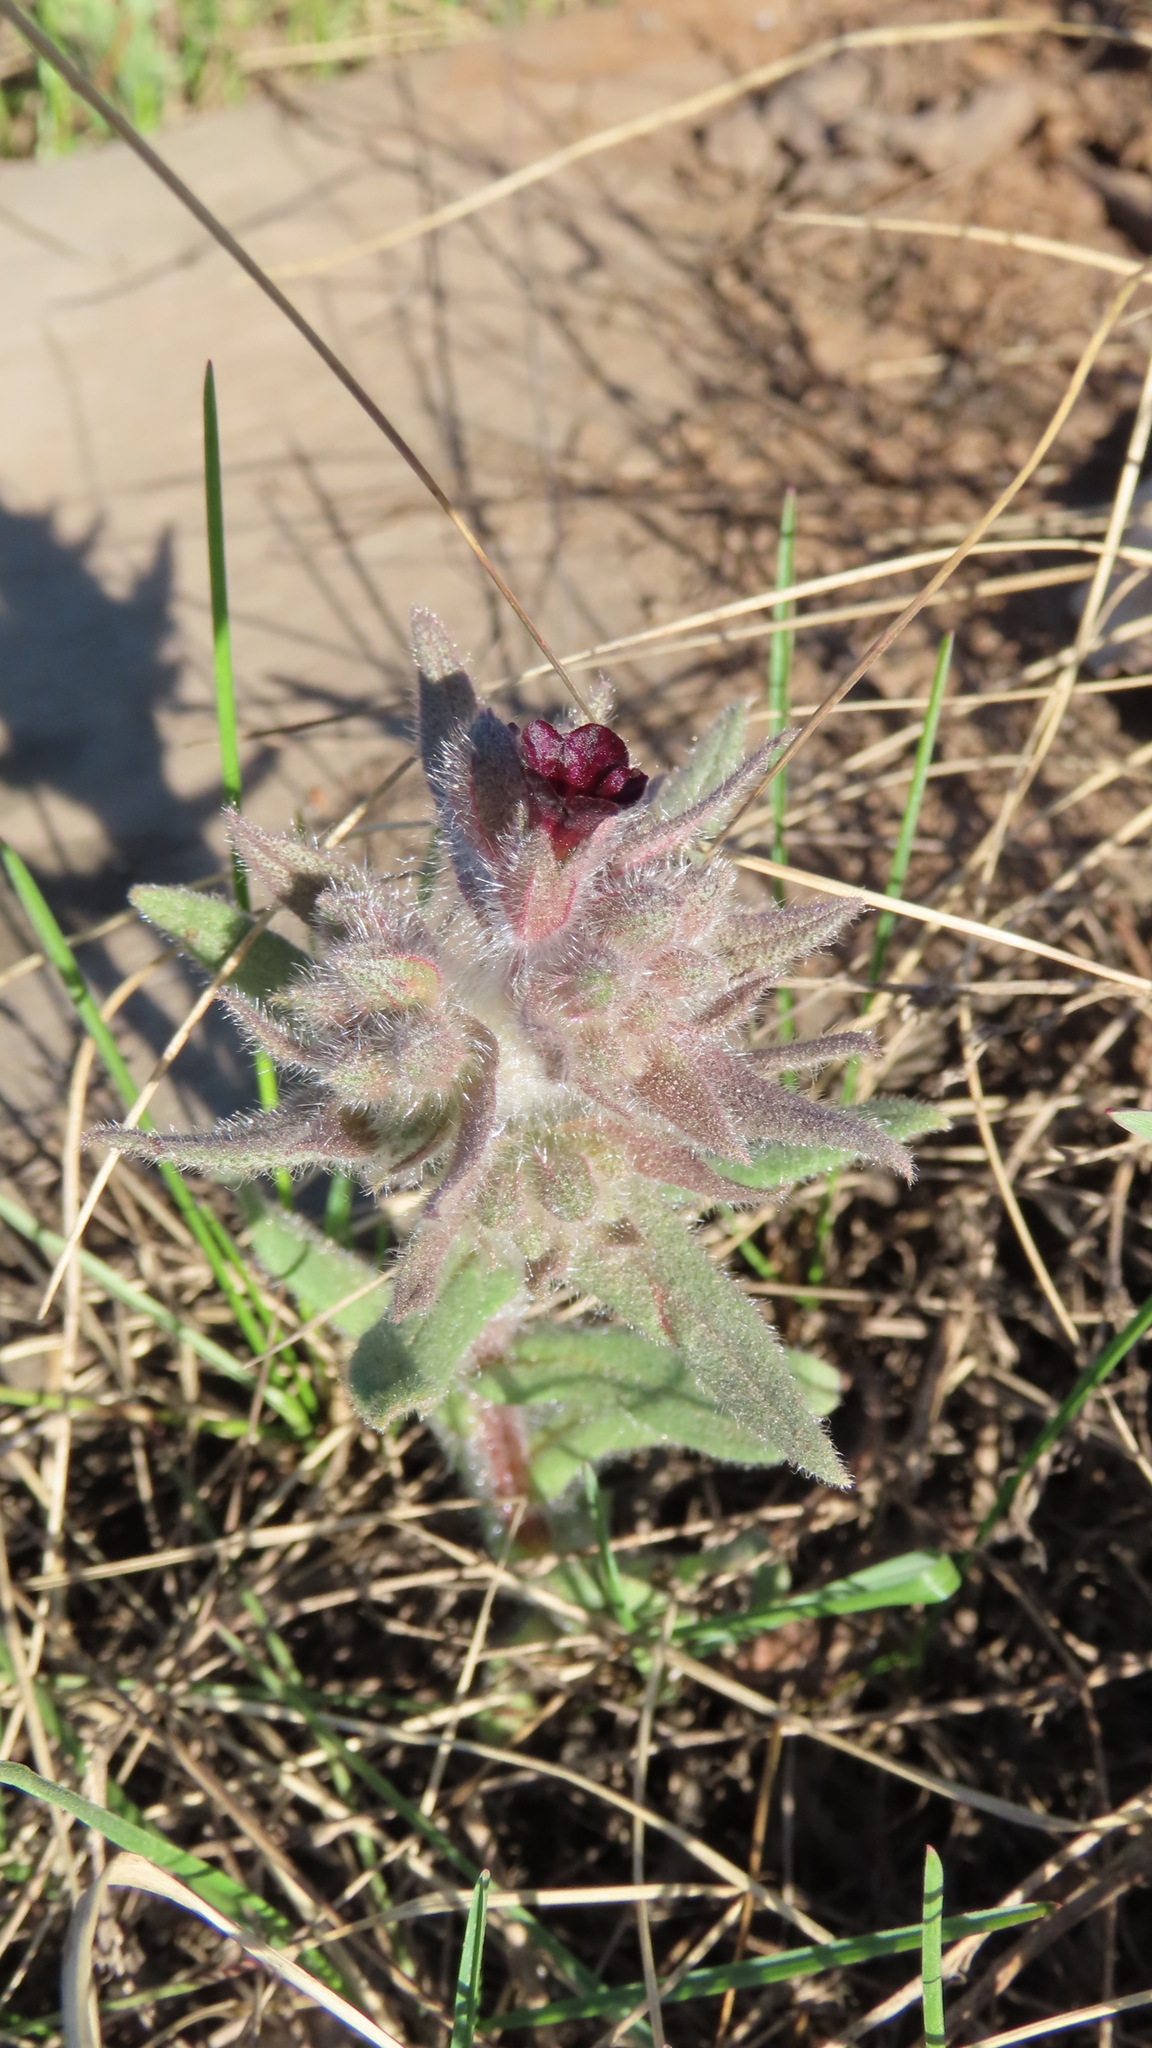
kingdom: Plantae
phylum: Tracheophyta
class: Magnoliopsida
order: Boraginales
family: Boraginaceae
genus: Nonea
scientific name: Nonea pulla
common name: Brown nonea
